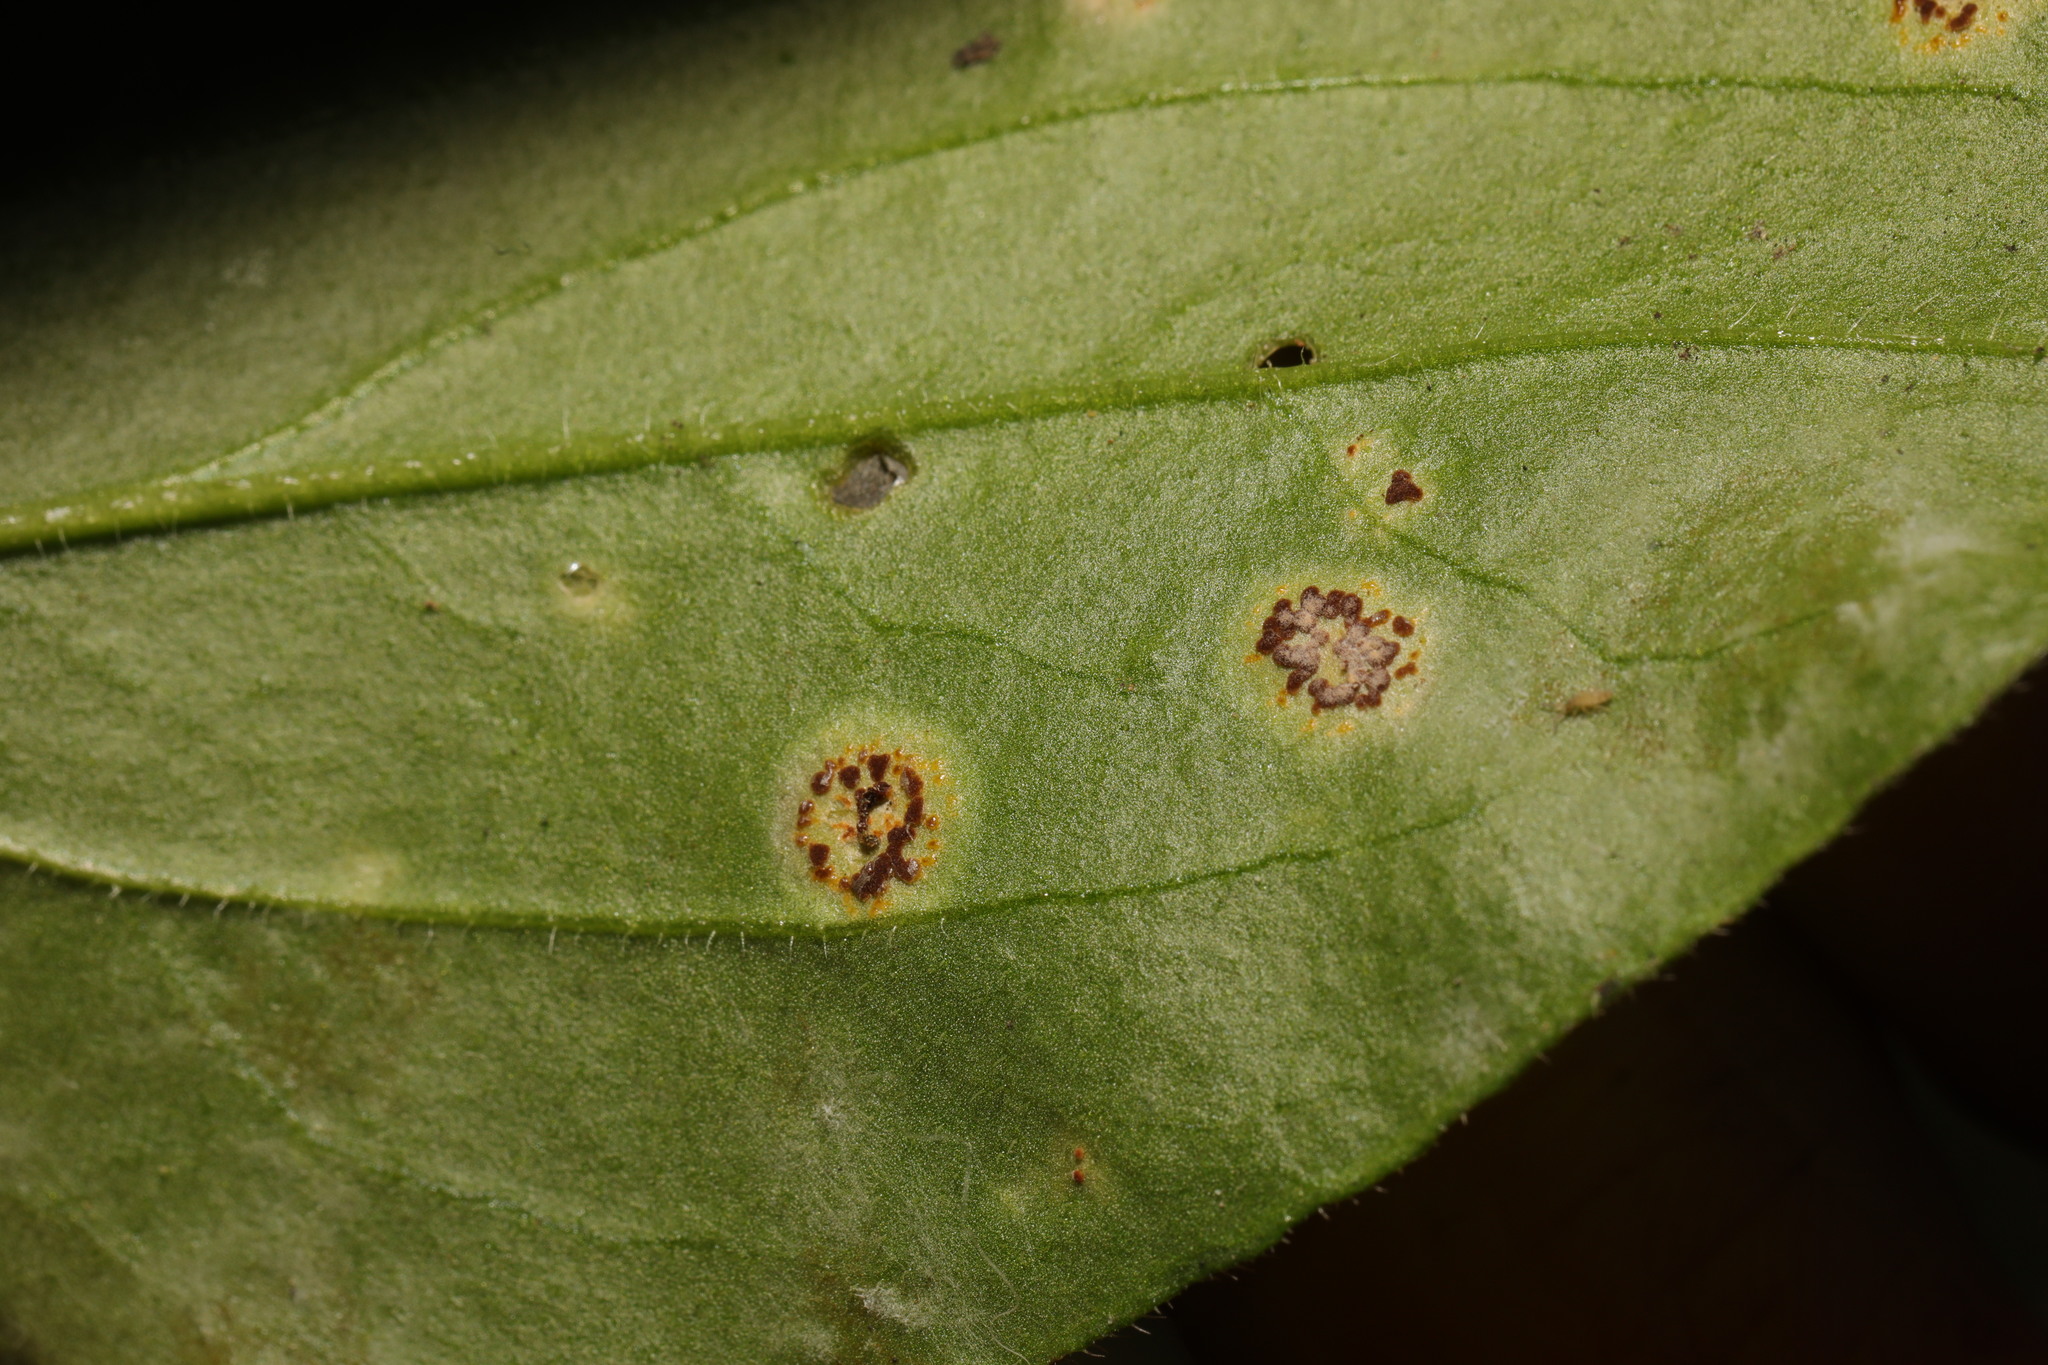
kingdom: Fungi
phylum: Basidiomycota
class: Pucciniomycetes
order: Pucciniales
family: Pucciniaceae
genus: Puccinia
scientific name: Puccinia arenariae
